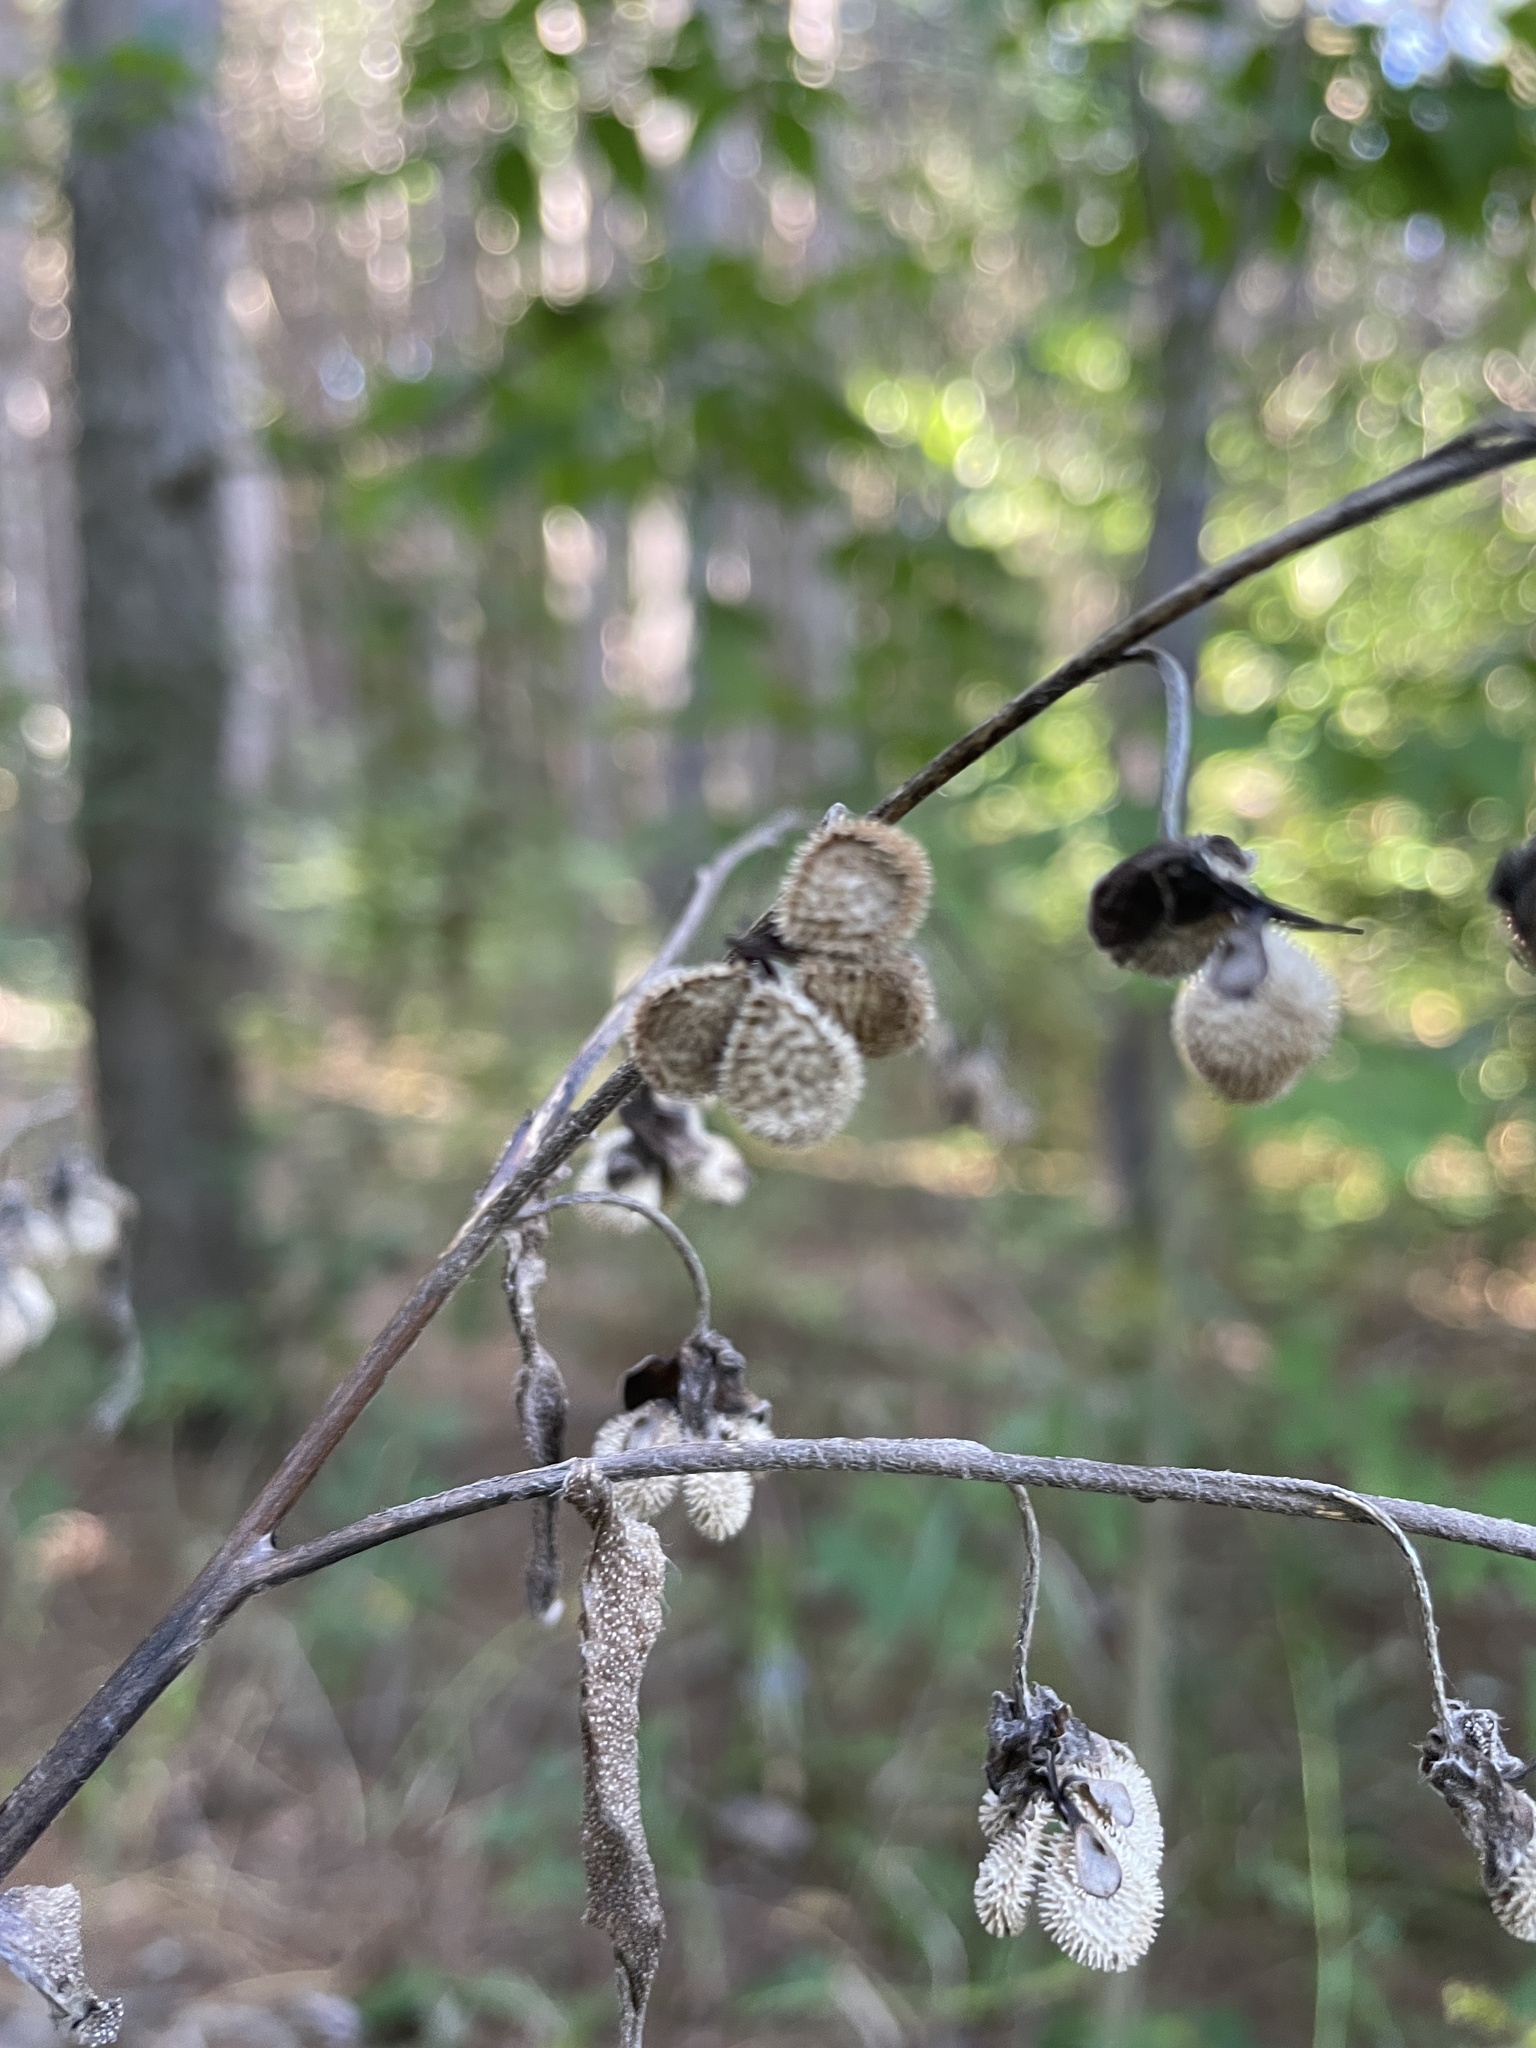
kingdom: Plantae
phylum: Tracheophyta
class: Magnoliopsida
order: Boraginales
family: Boraginaceae
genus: Cynoglossum
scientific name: Cynoglossum officinale
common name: Hound's-tongue
